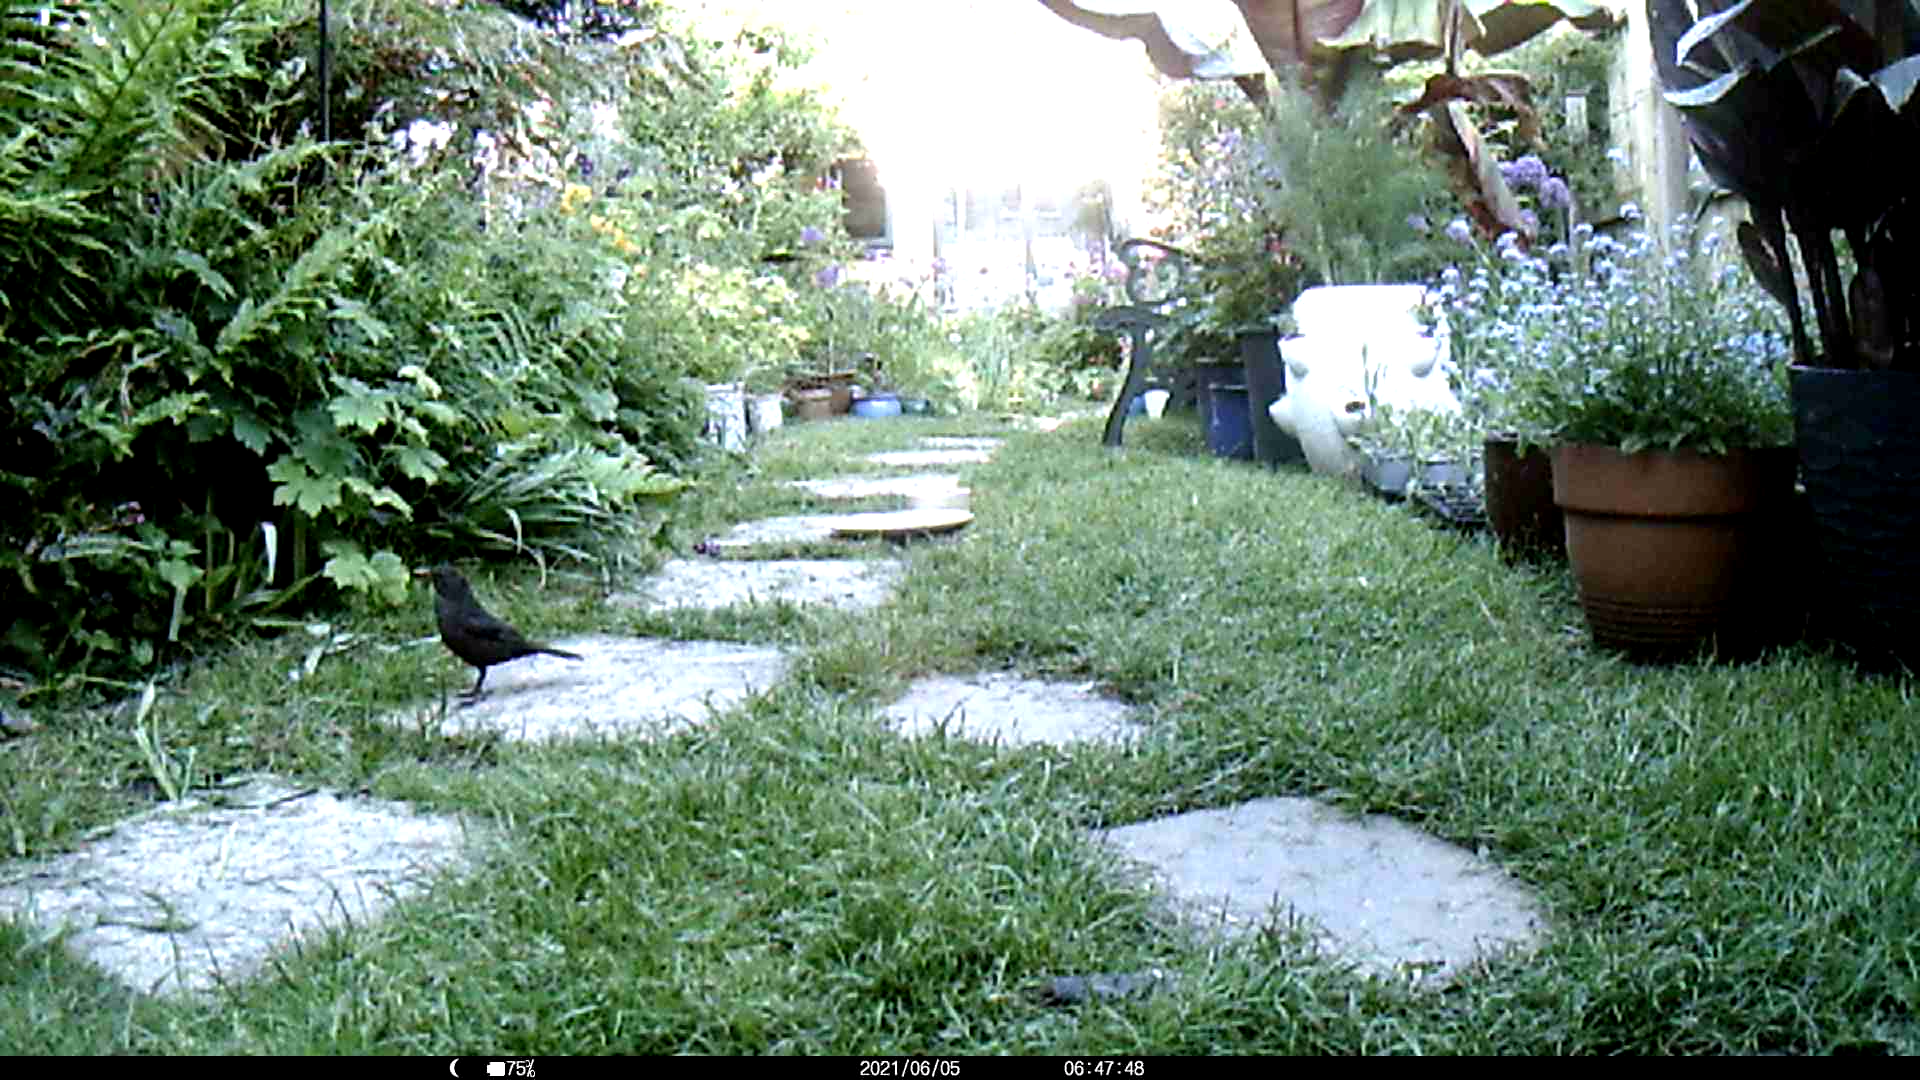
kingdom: Animalia
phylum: Chordata
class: Aves
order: Passeriformes
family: Turdidae
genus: Turdus
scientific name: Turdus merula
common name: Common blackbird
